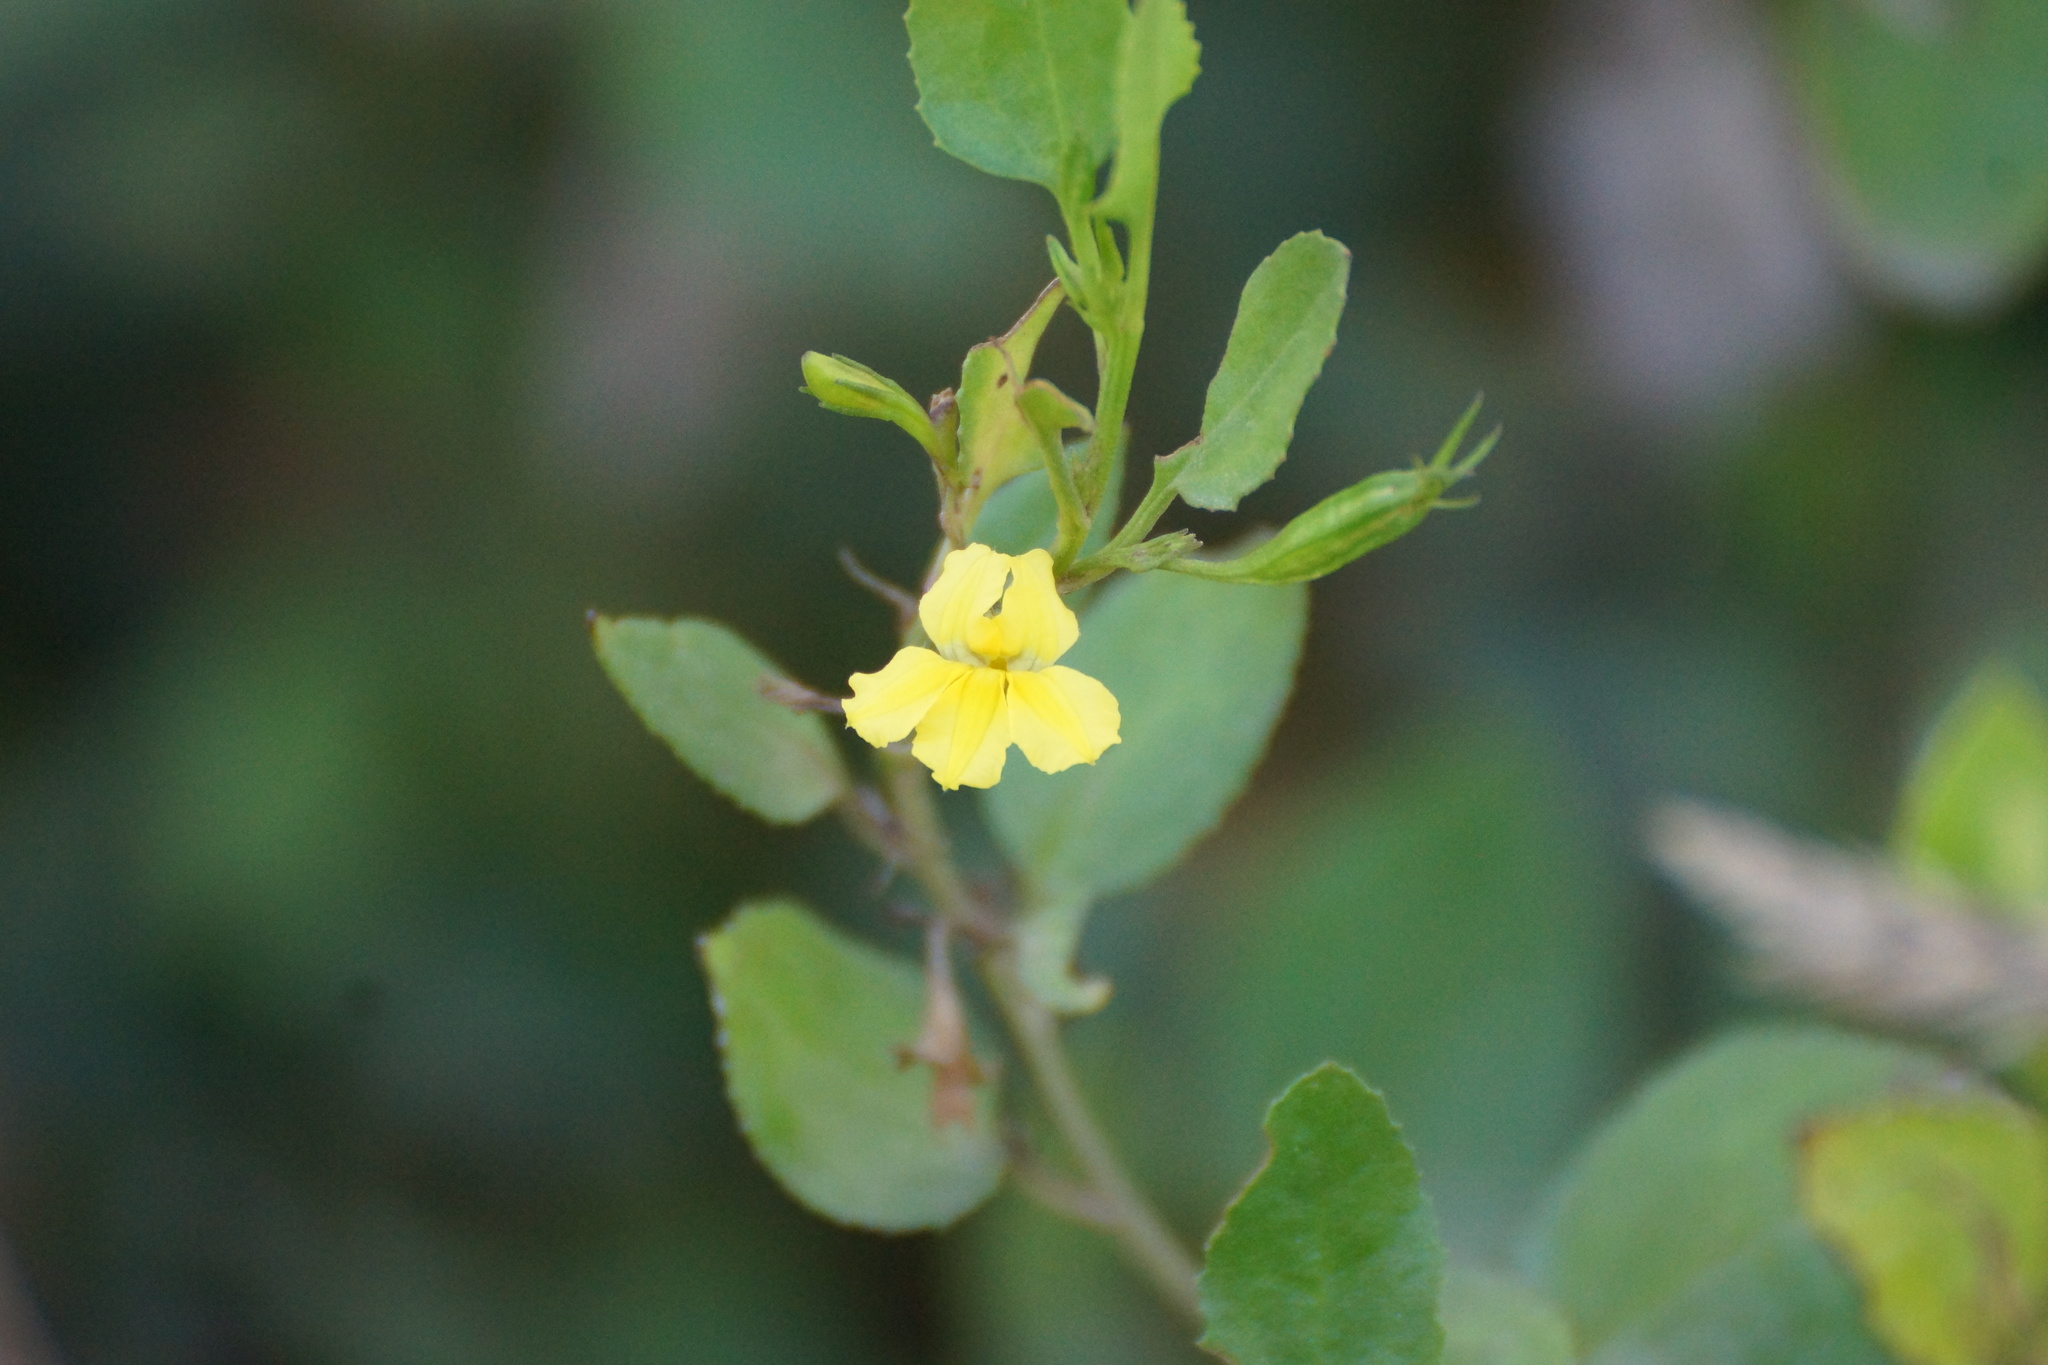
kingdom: Plantae
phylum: Tracheophyta
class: Magnoliopsida
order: Asterales
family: Goodeniaceae
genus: Goodenia
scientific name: Goodenia ovata
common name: Hop goodenia
